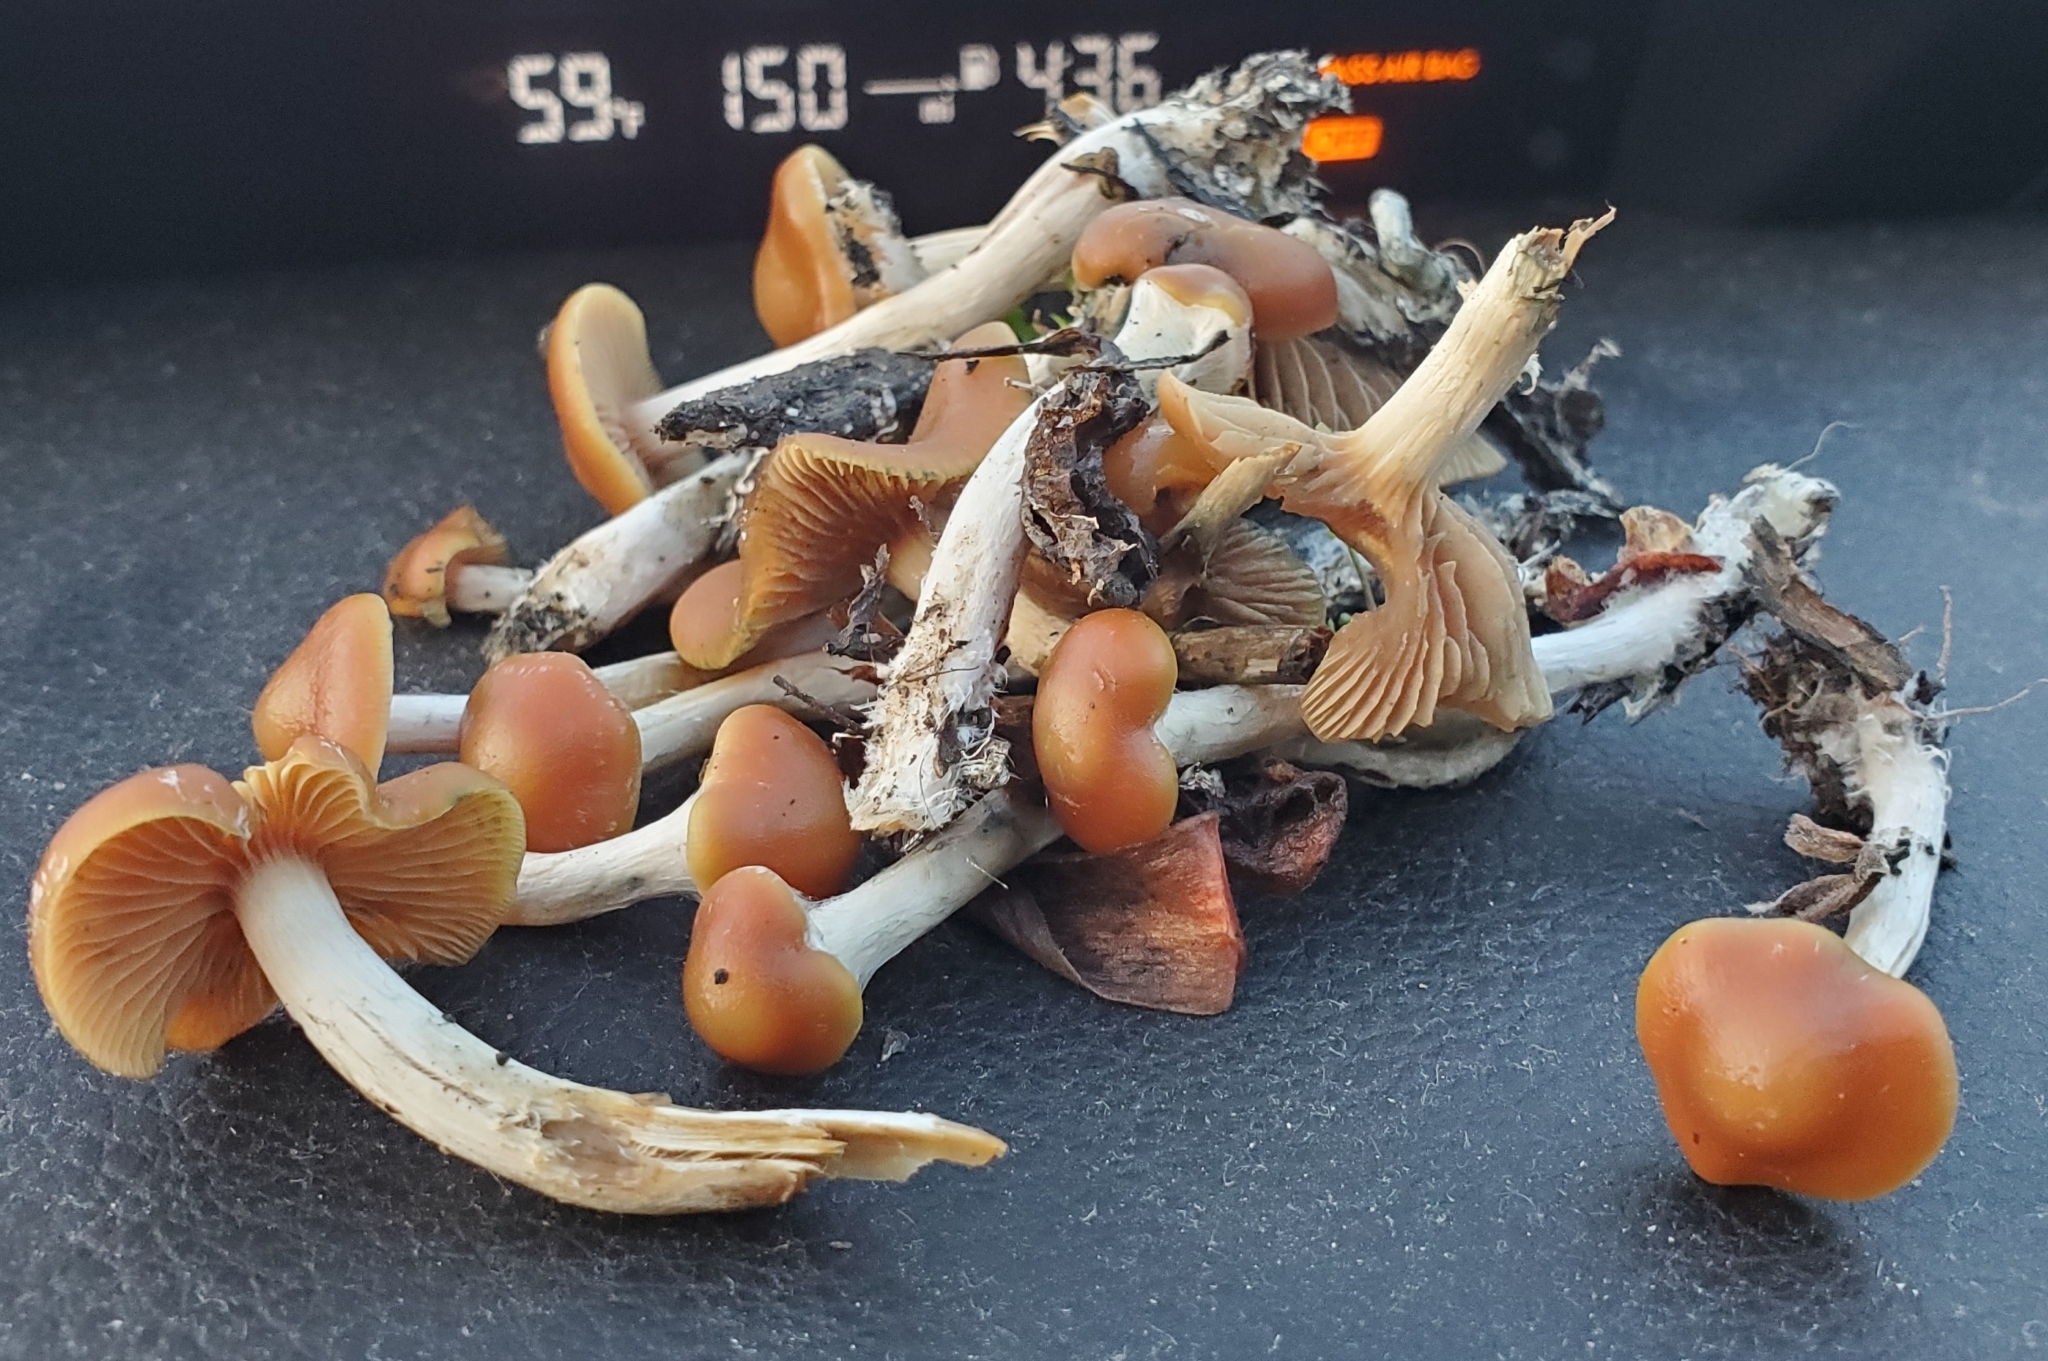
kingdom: Fungi
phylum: Basidiomycota
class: Agaricomycetes
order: Agaricales
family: Hymenogastraceae
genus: Psilocybe
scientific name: Psilocybe cyanescens
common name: Blueleg brownie
